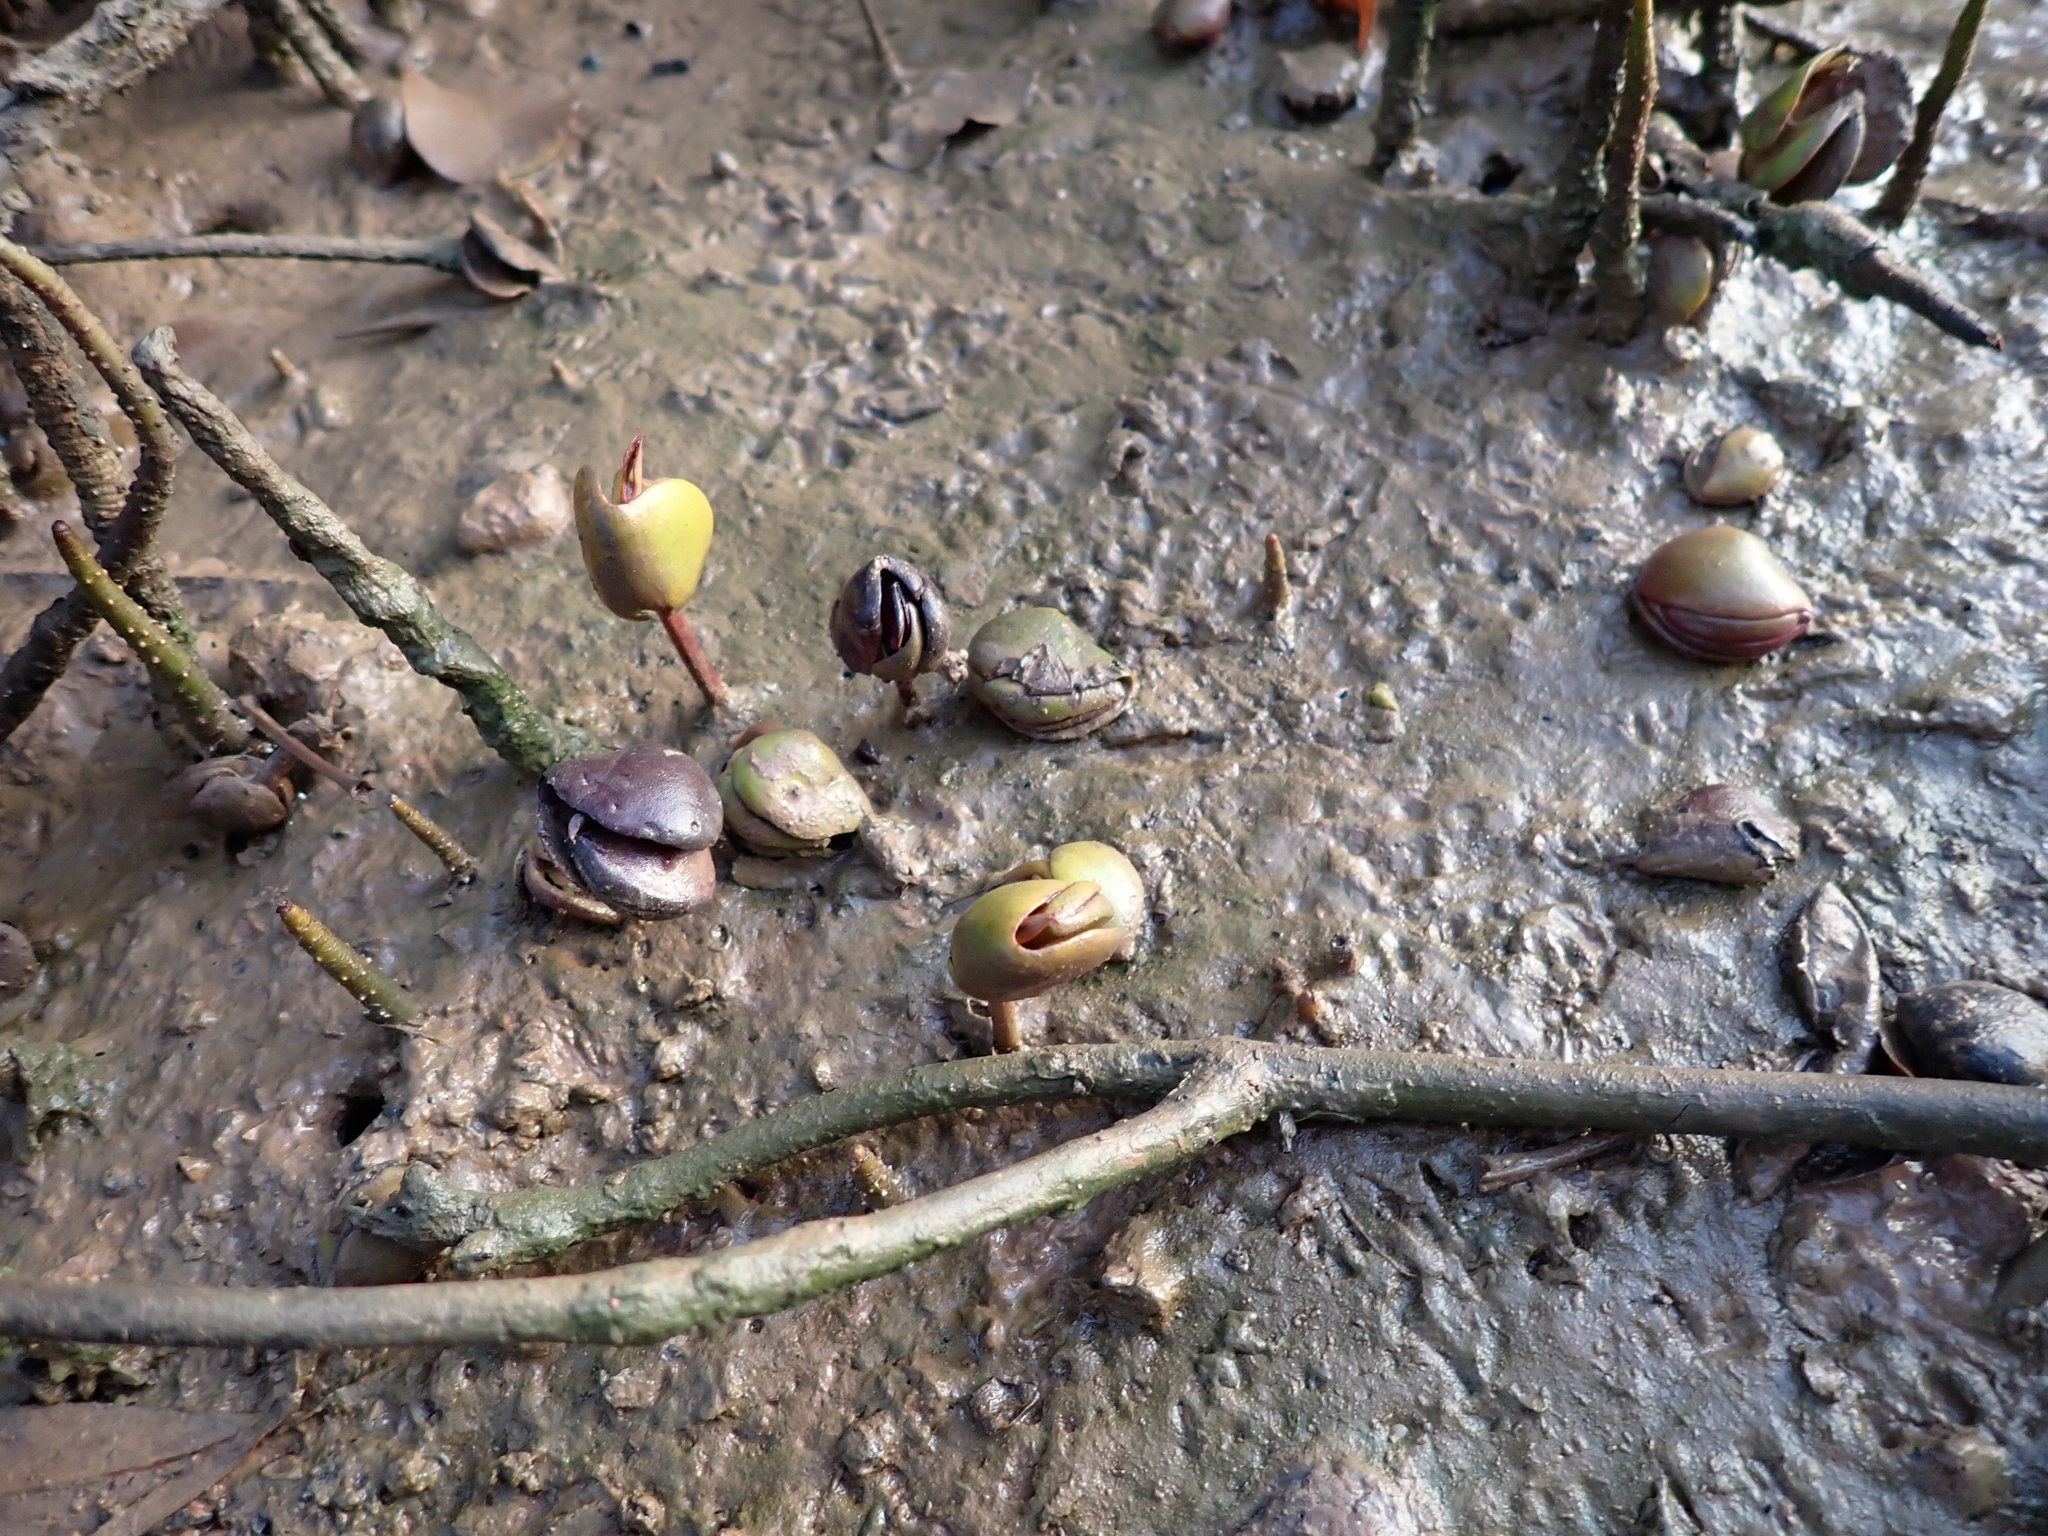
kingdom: Plantae
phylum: Tracheophyta
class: Magnoliopsida
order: Lamiales
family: Acanthaceae
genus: Avicennia
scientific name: Avicennia marina
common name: Gray mangrove
